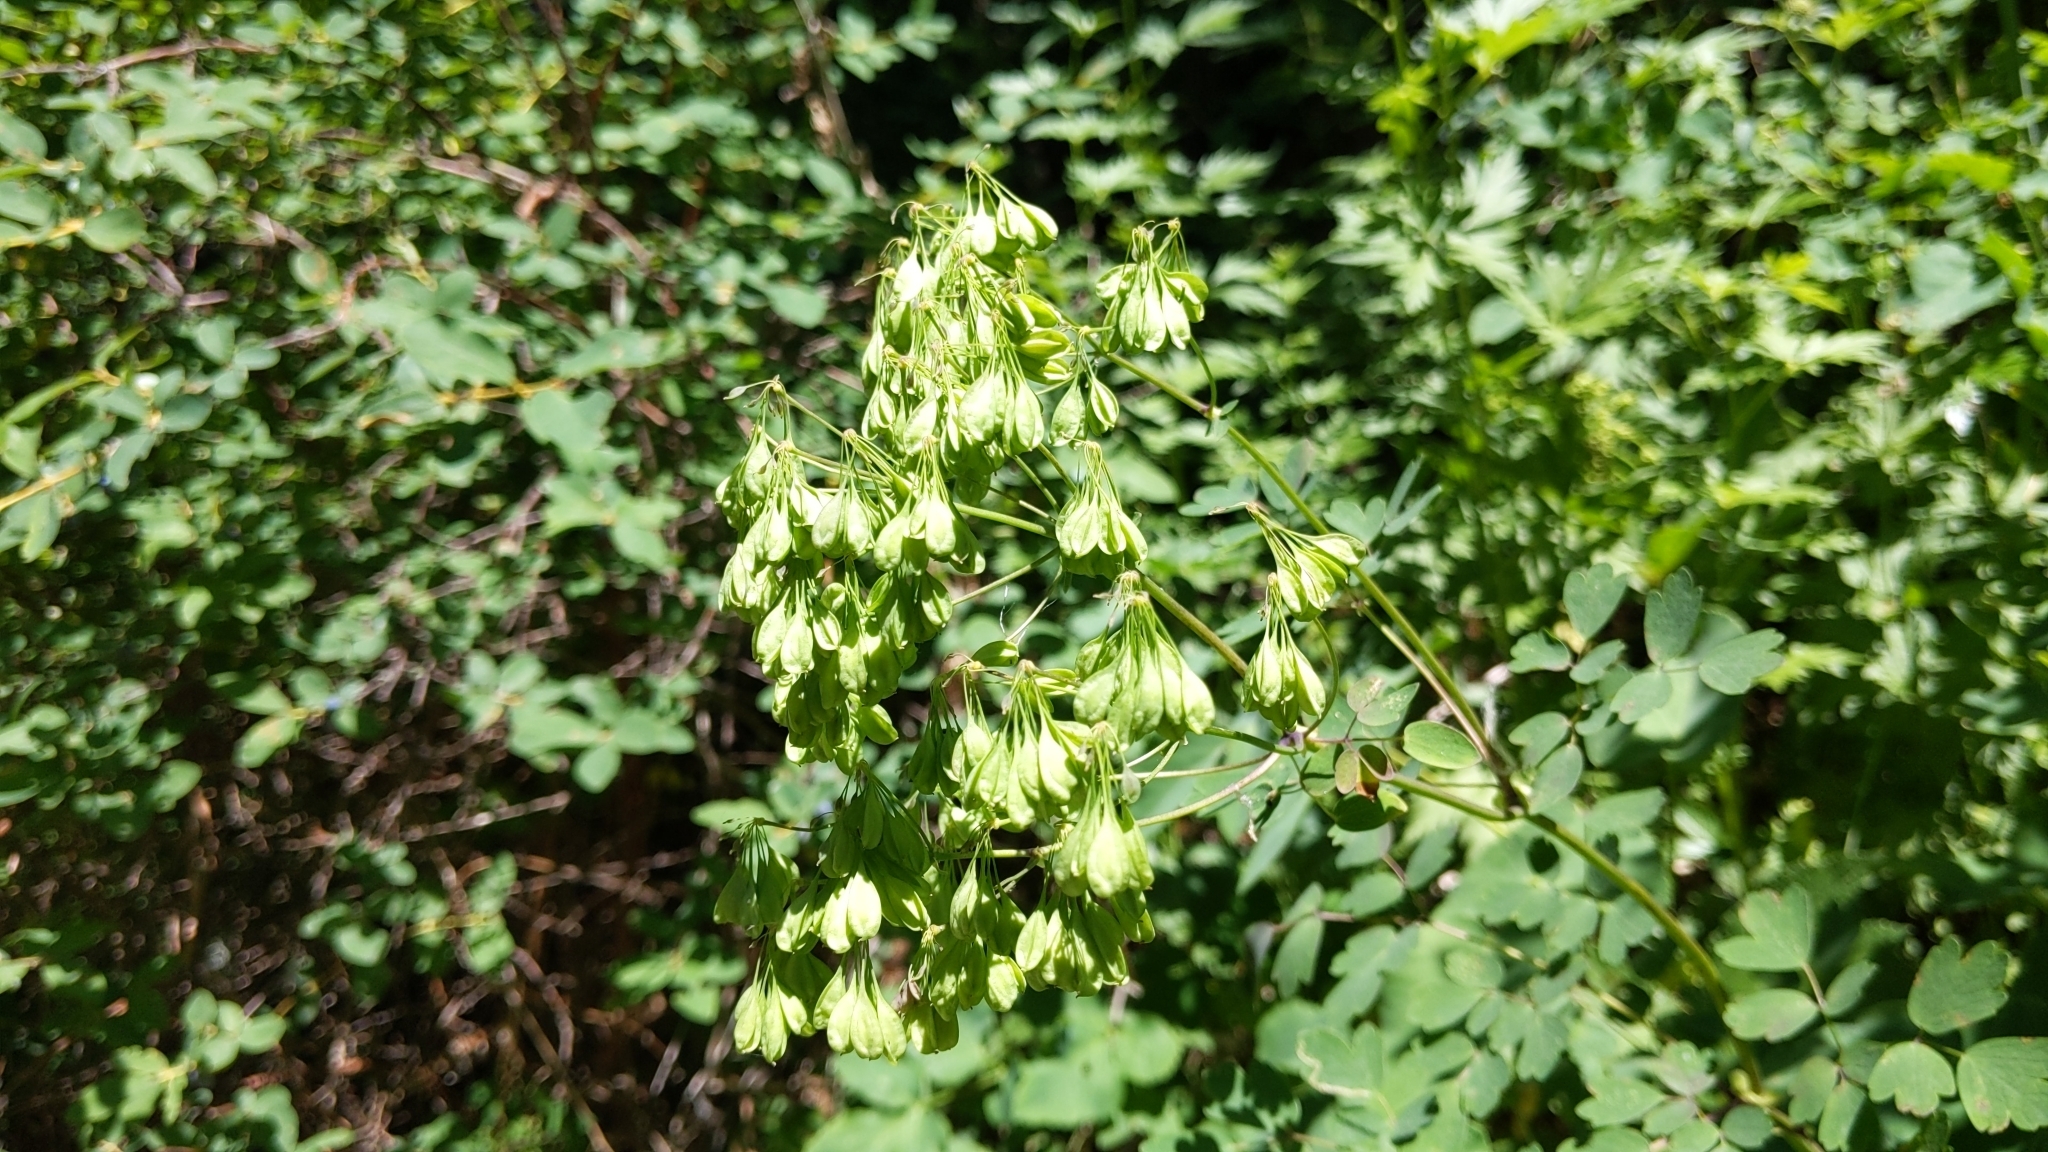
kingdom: Plantae
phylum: Tracheophyta
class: Magnoliopsida
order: Ranunculales
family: Ranunculaceae
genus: Thalictrum
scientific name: Thalictrum aquilegiifolium
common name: French meadow-rue
